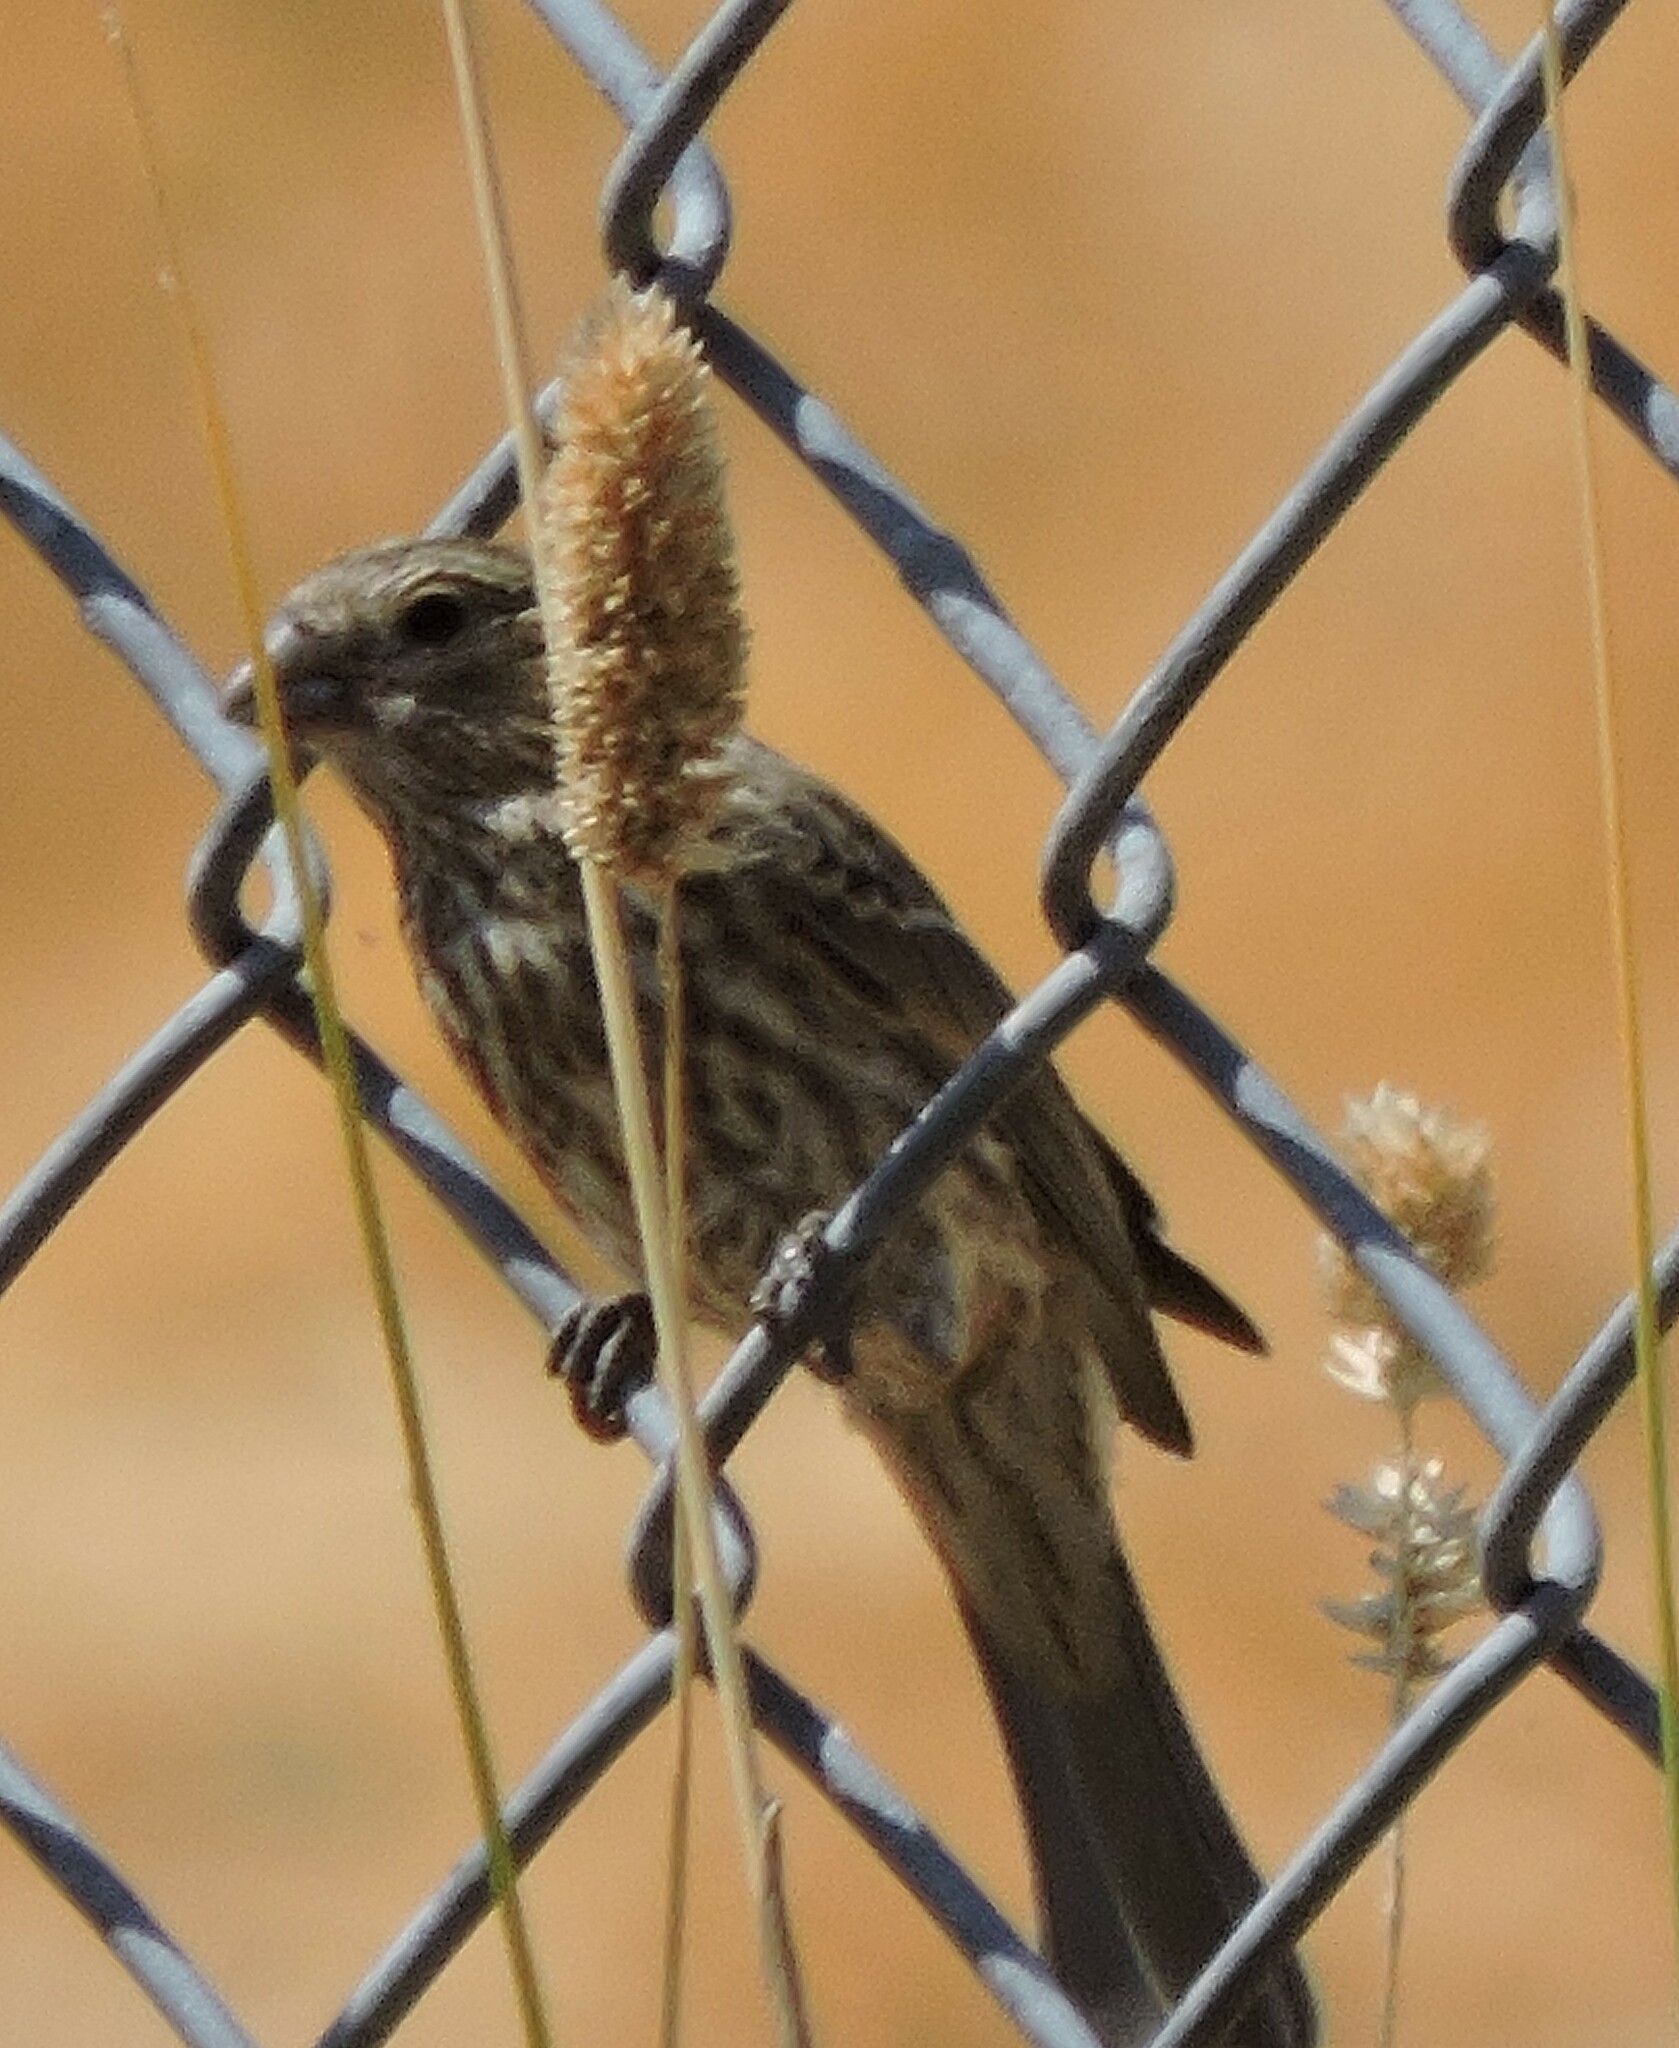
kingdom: Animalia
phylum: Chordata
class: Aves
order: Passeriformes
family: Fringillidae
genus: Haemorhous
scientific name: Haemorhous mexicanus
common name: House finch
